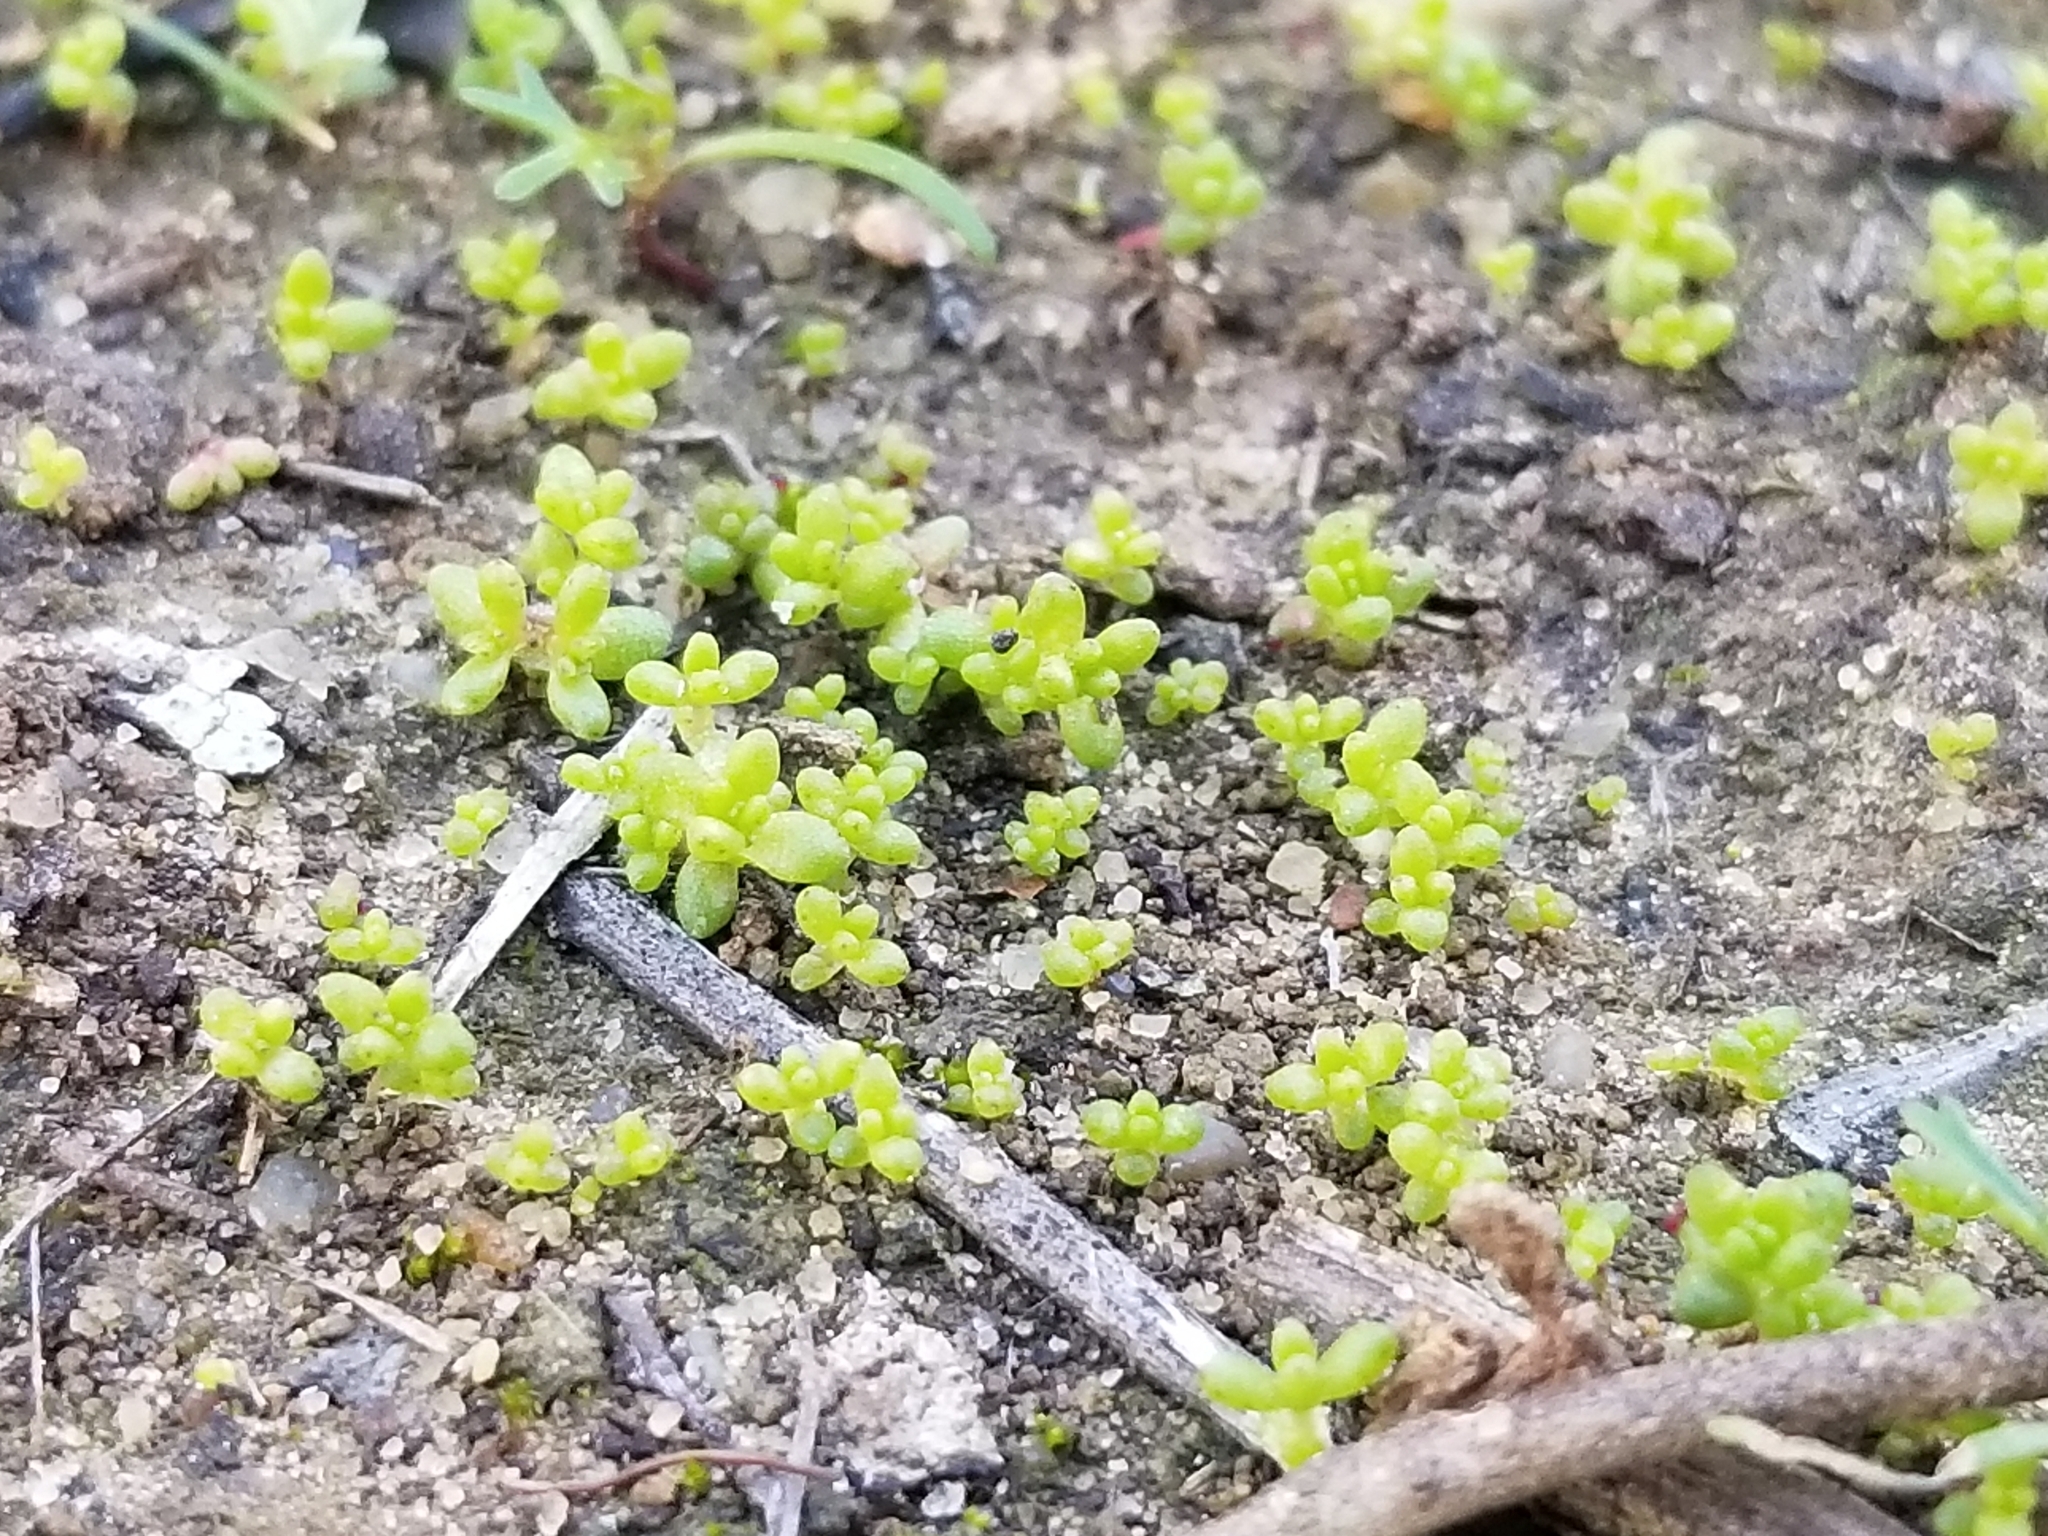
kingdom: Plantae
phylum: Tracheophyta
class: Magnoliopsida
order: Saxifragales
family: Crassulaceae
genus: Crassula
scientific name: Crassula connata
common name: Erect pygmyweed
